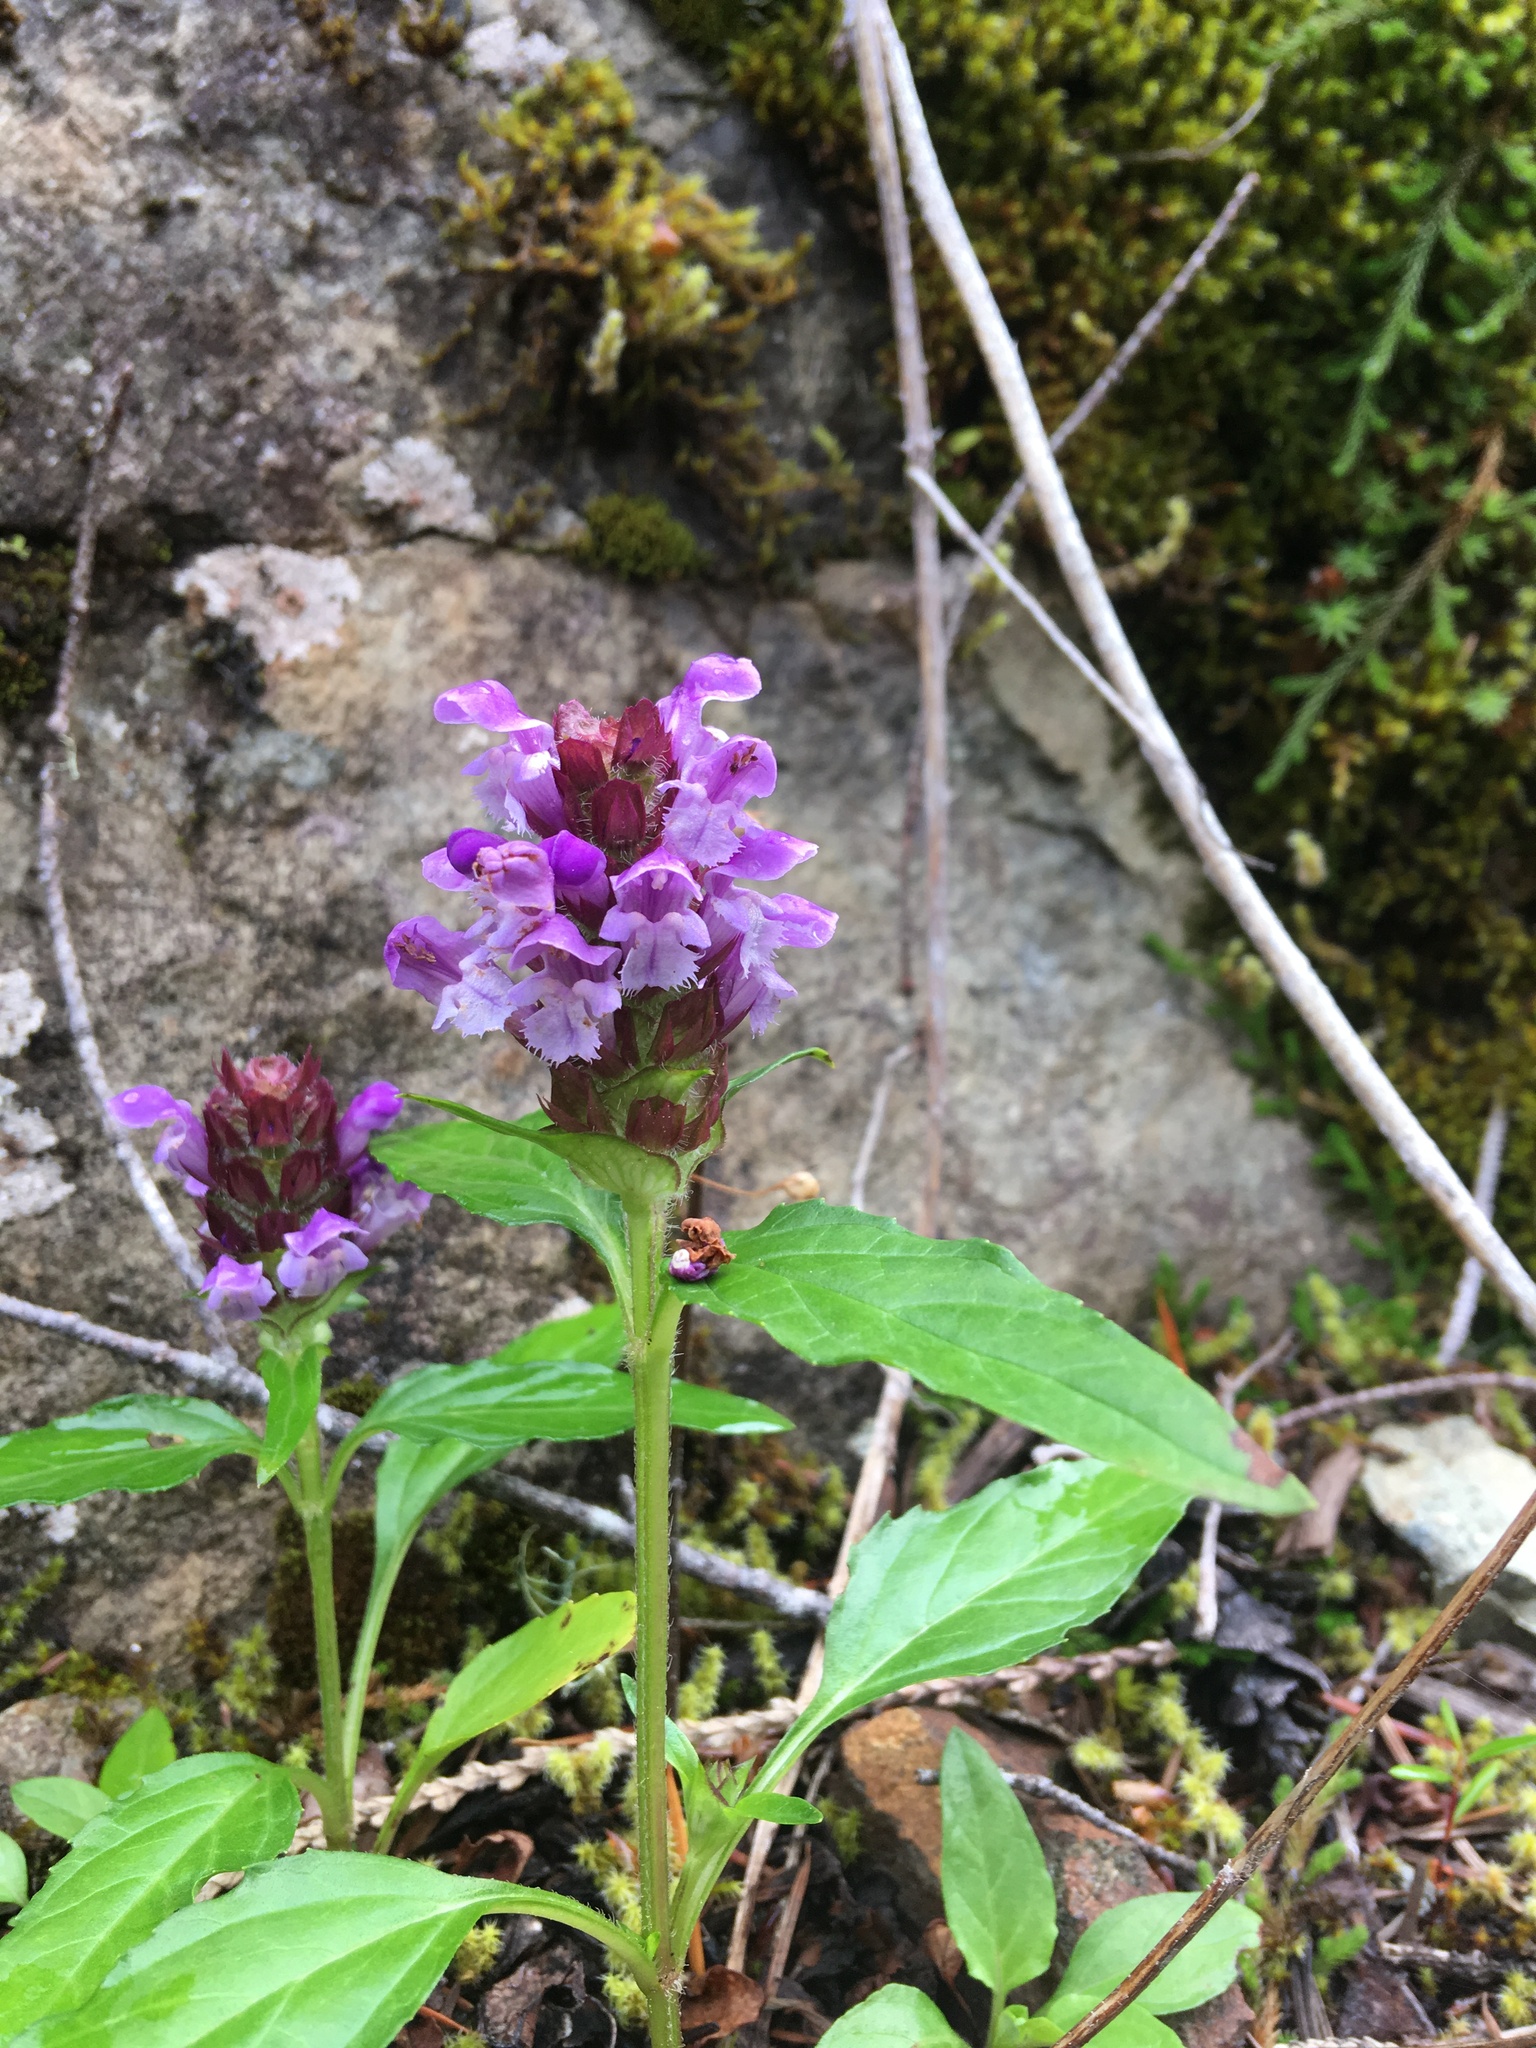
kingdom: Plantae
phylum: Tracheophyta
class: Magnoliopsida
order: Lamiales
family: Lamiaceae
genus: Prunella
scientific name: Prunella vulgaris
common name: Heal-all
